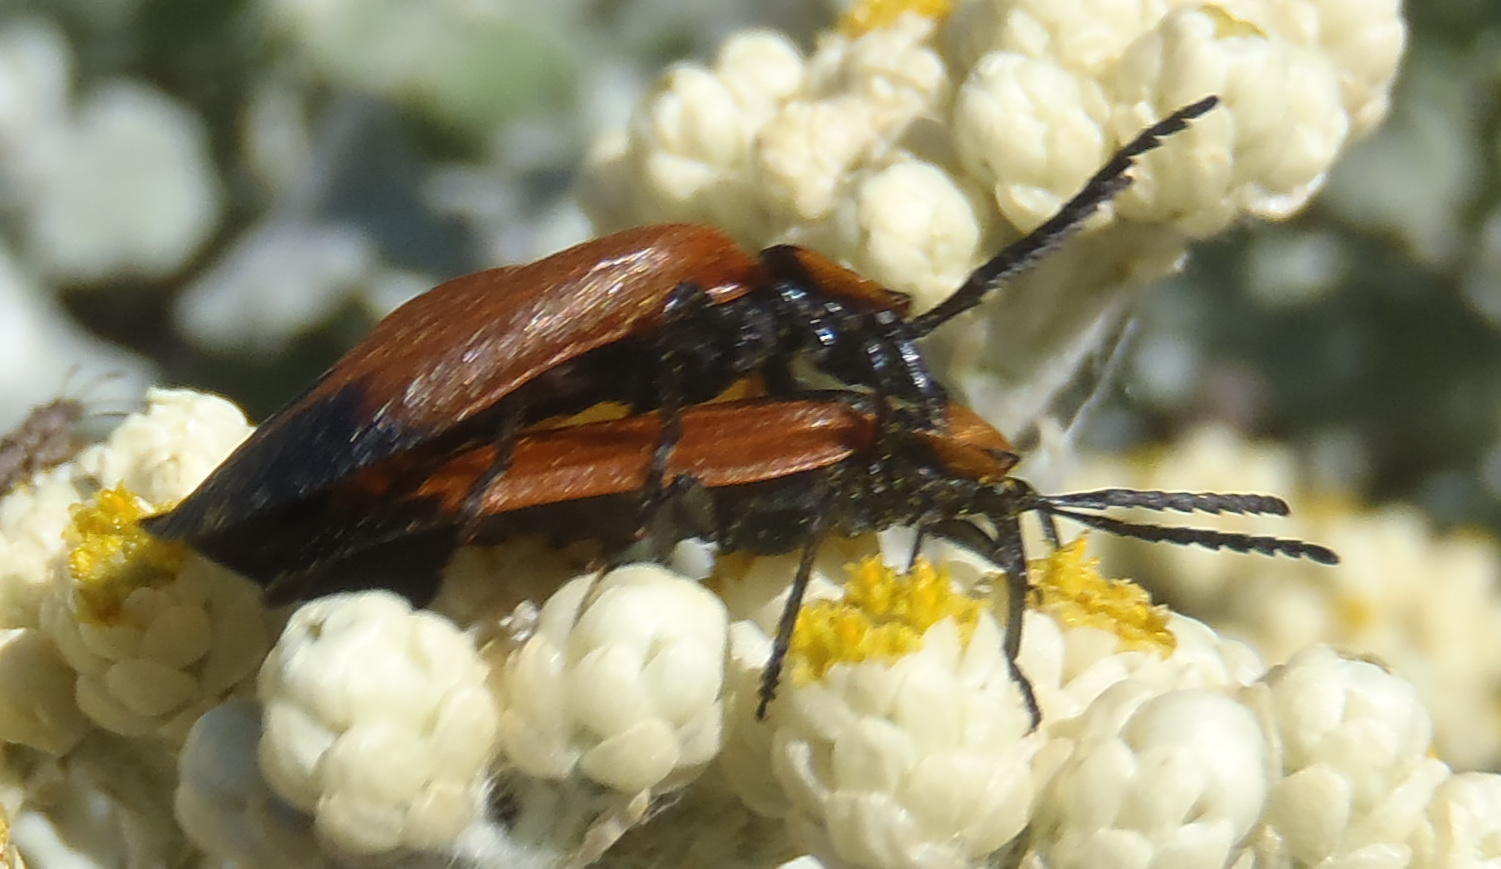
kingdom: Animalia
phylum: Arthropoda
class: Insecta
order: Coleoptera
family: Lycidae
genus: Lycus
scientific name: Lycus
